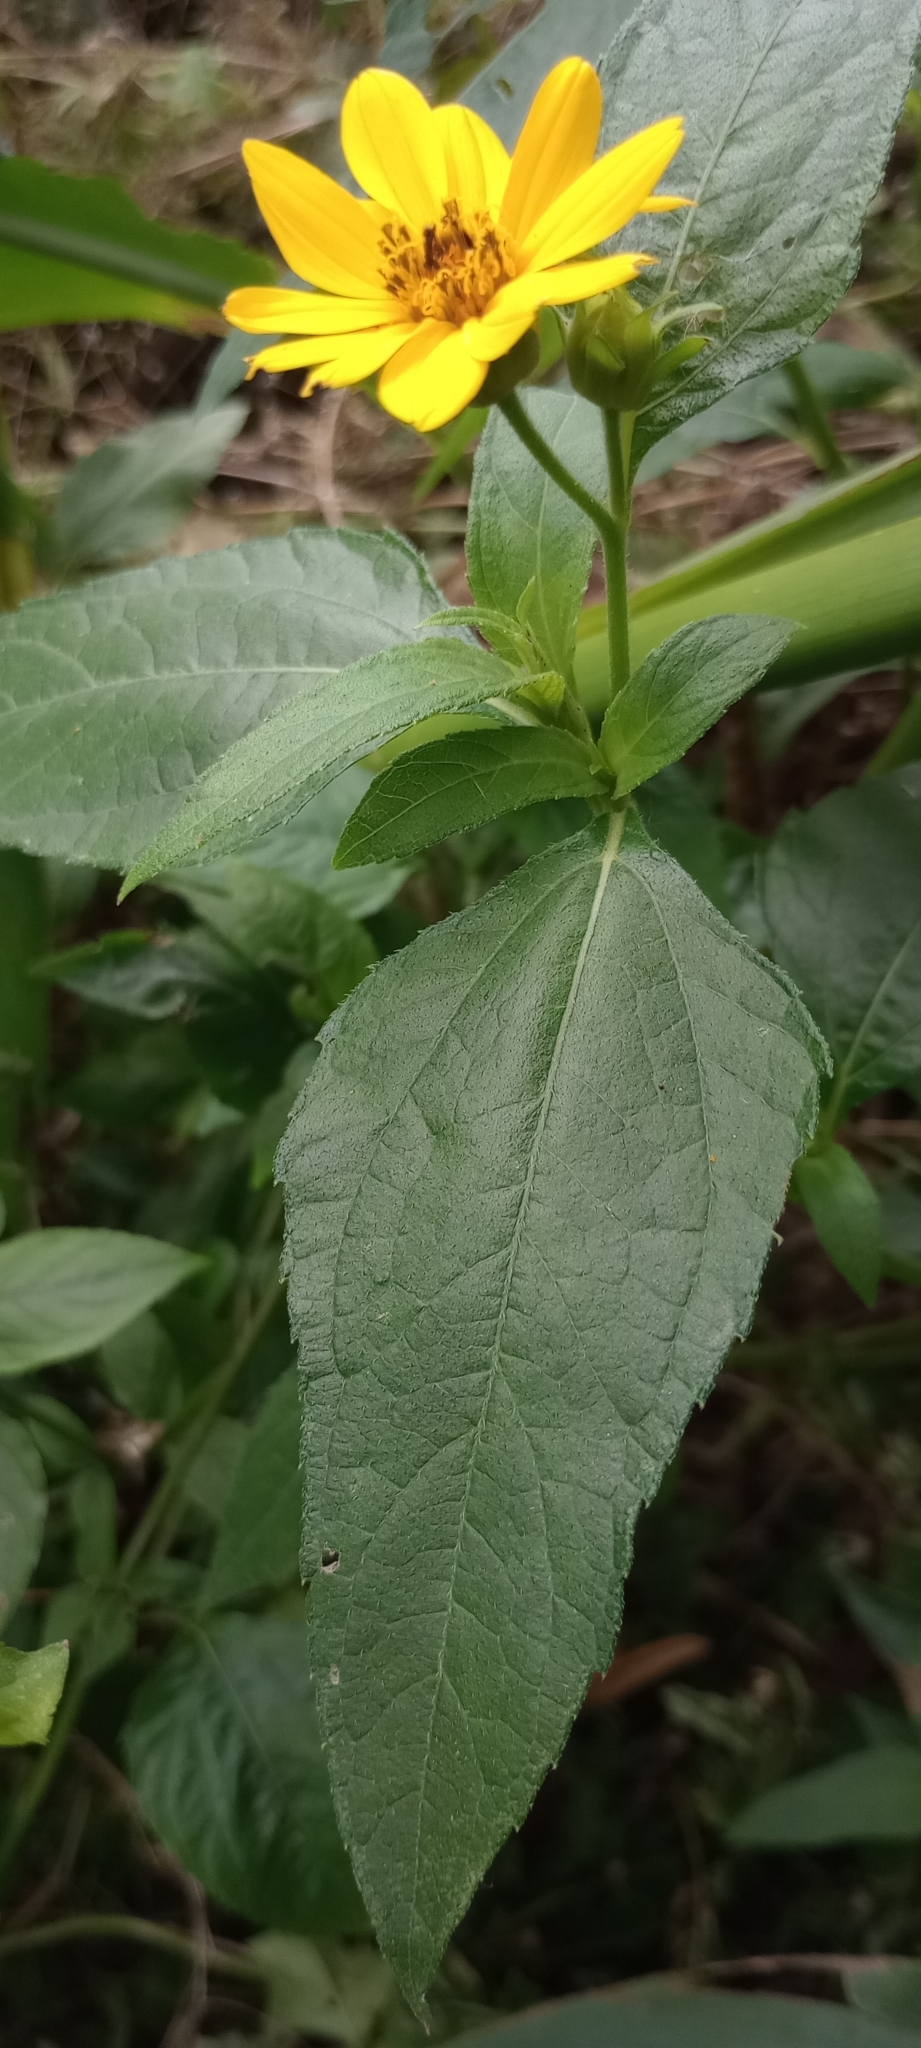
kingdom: Plantae
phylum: Tracheophyta
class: Magnoliopsida
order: Asterales
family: Asteraceae
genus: Wedelia
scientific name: Wedelia silphioides
